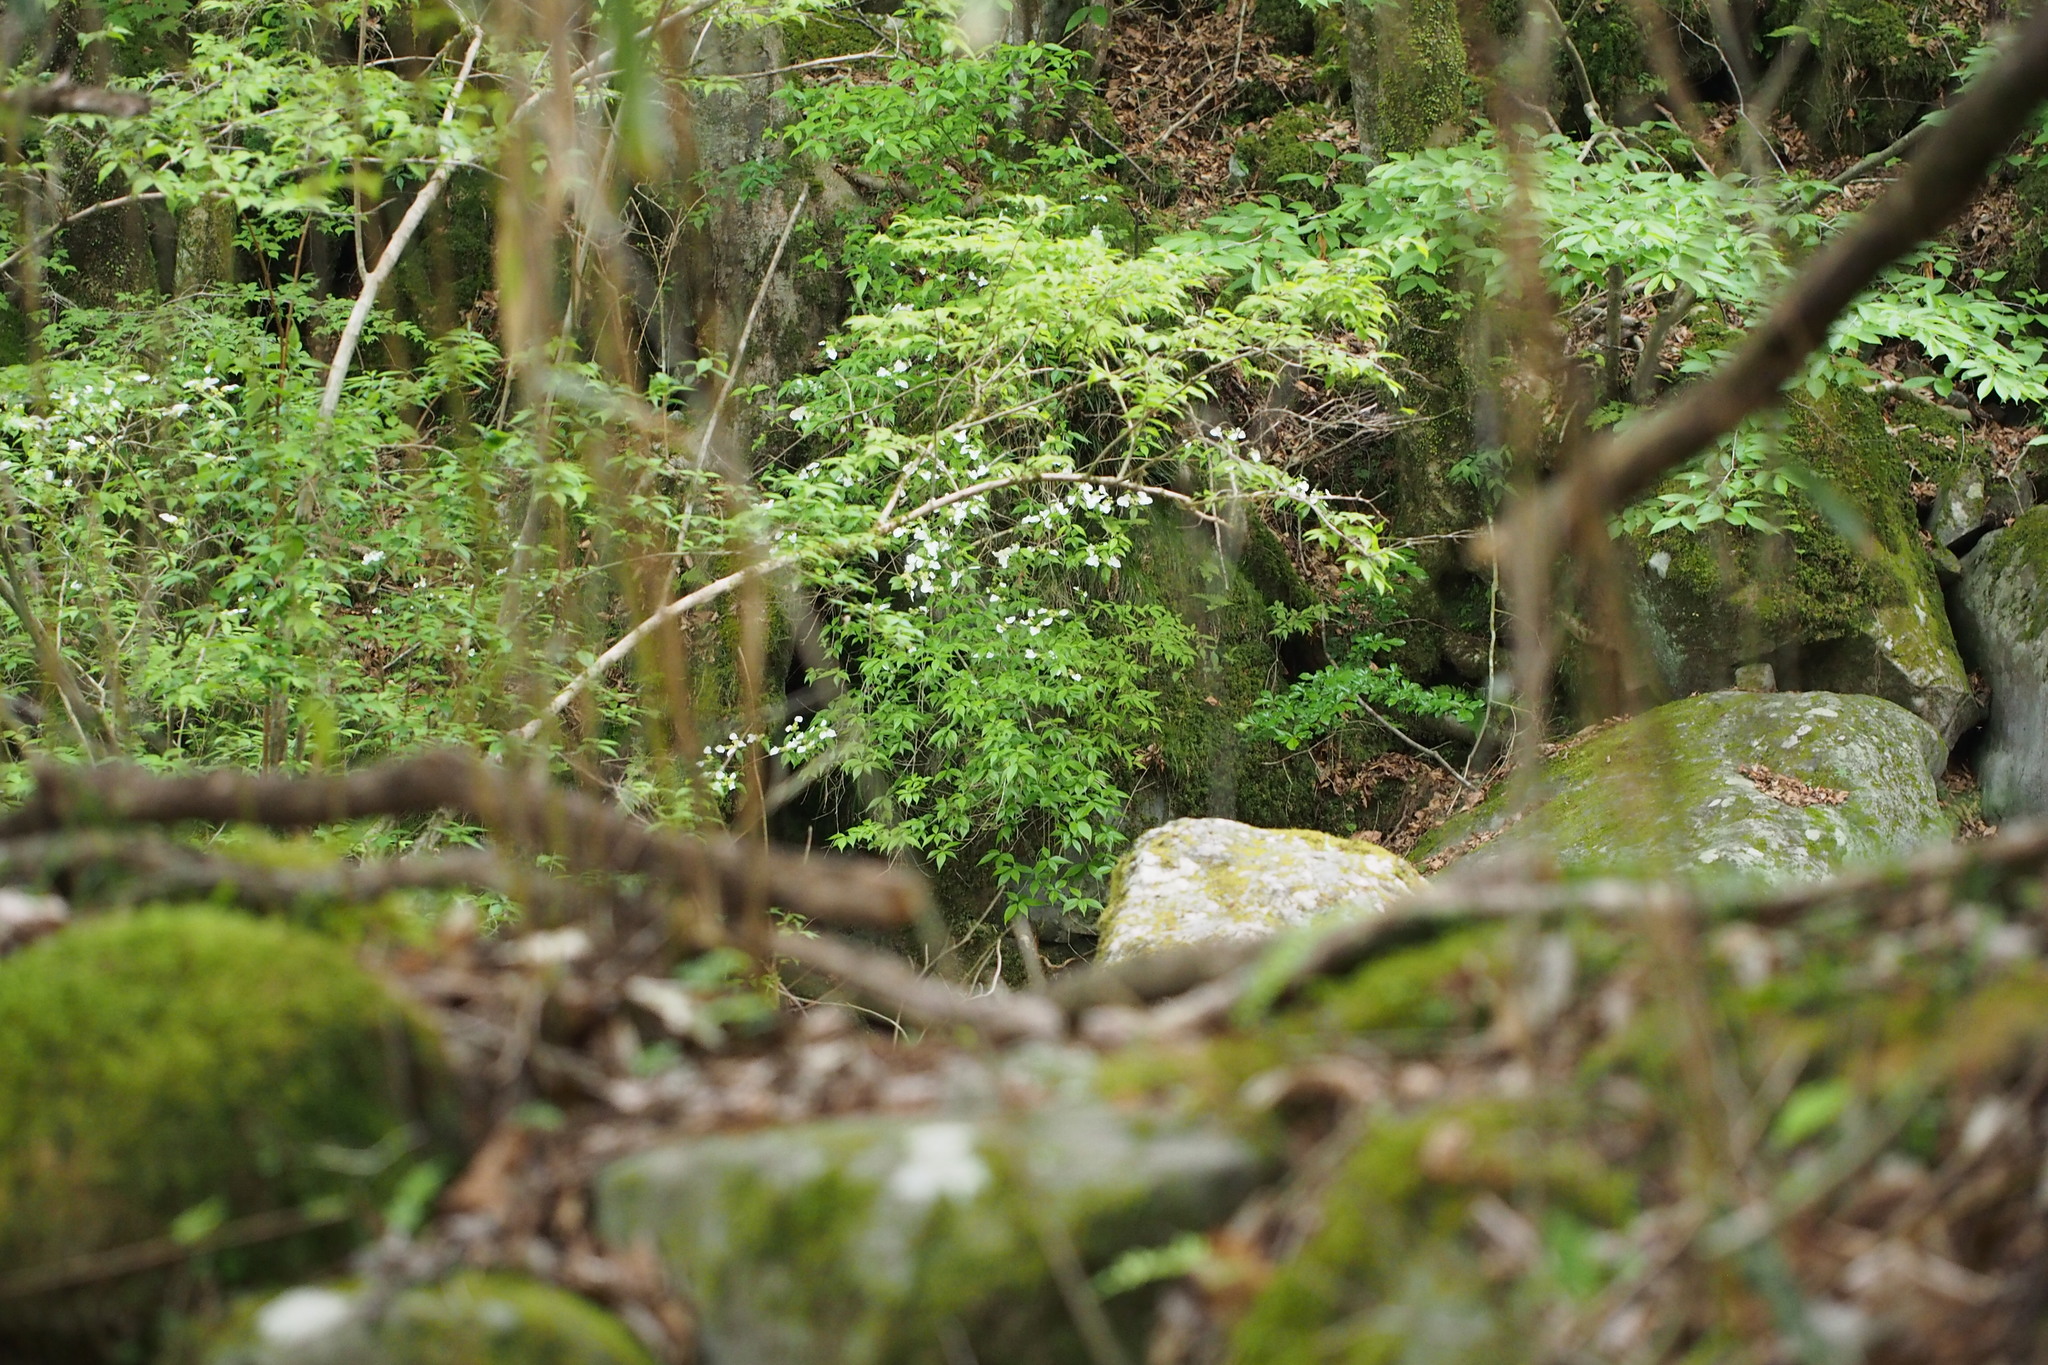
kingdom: Plantae
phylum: Tracheophyta
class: Magnoliopsida
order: Cornales
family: Hydrangeaceae
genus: Hydrangea
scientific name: Hydrangea scandens
